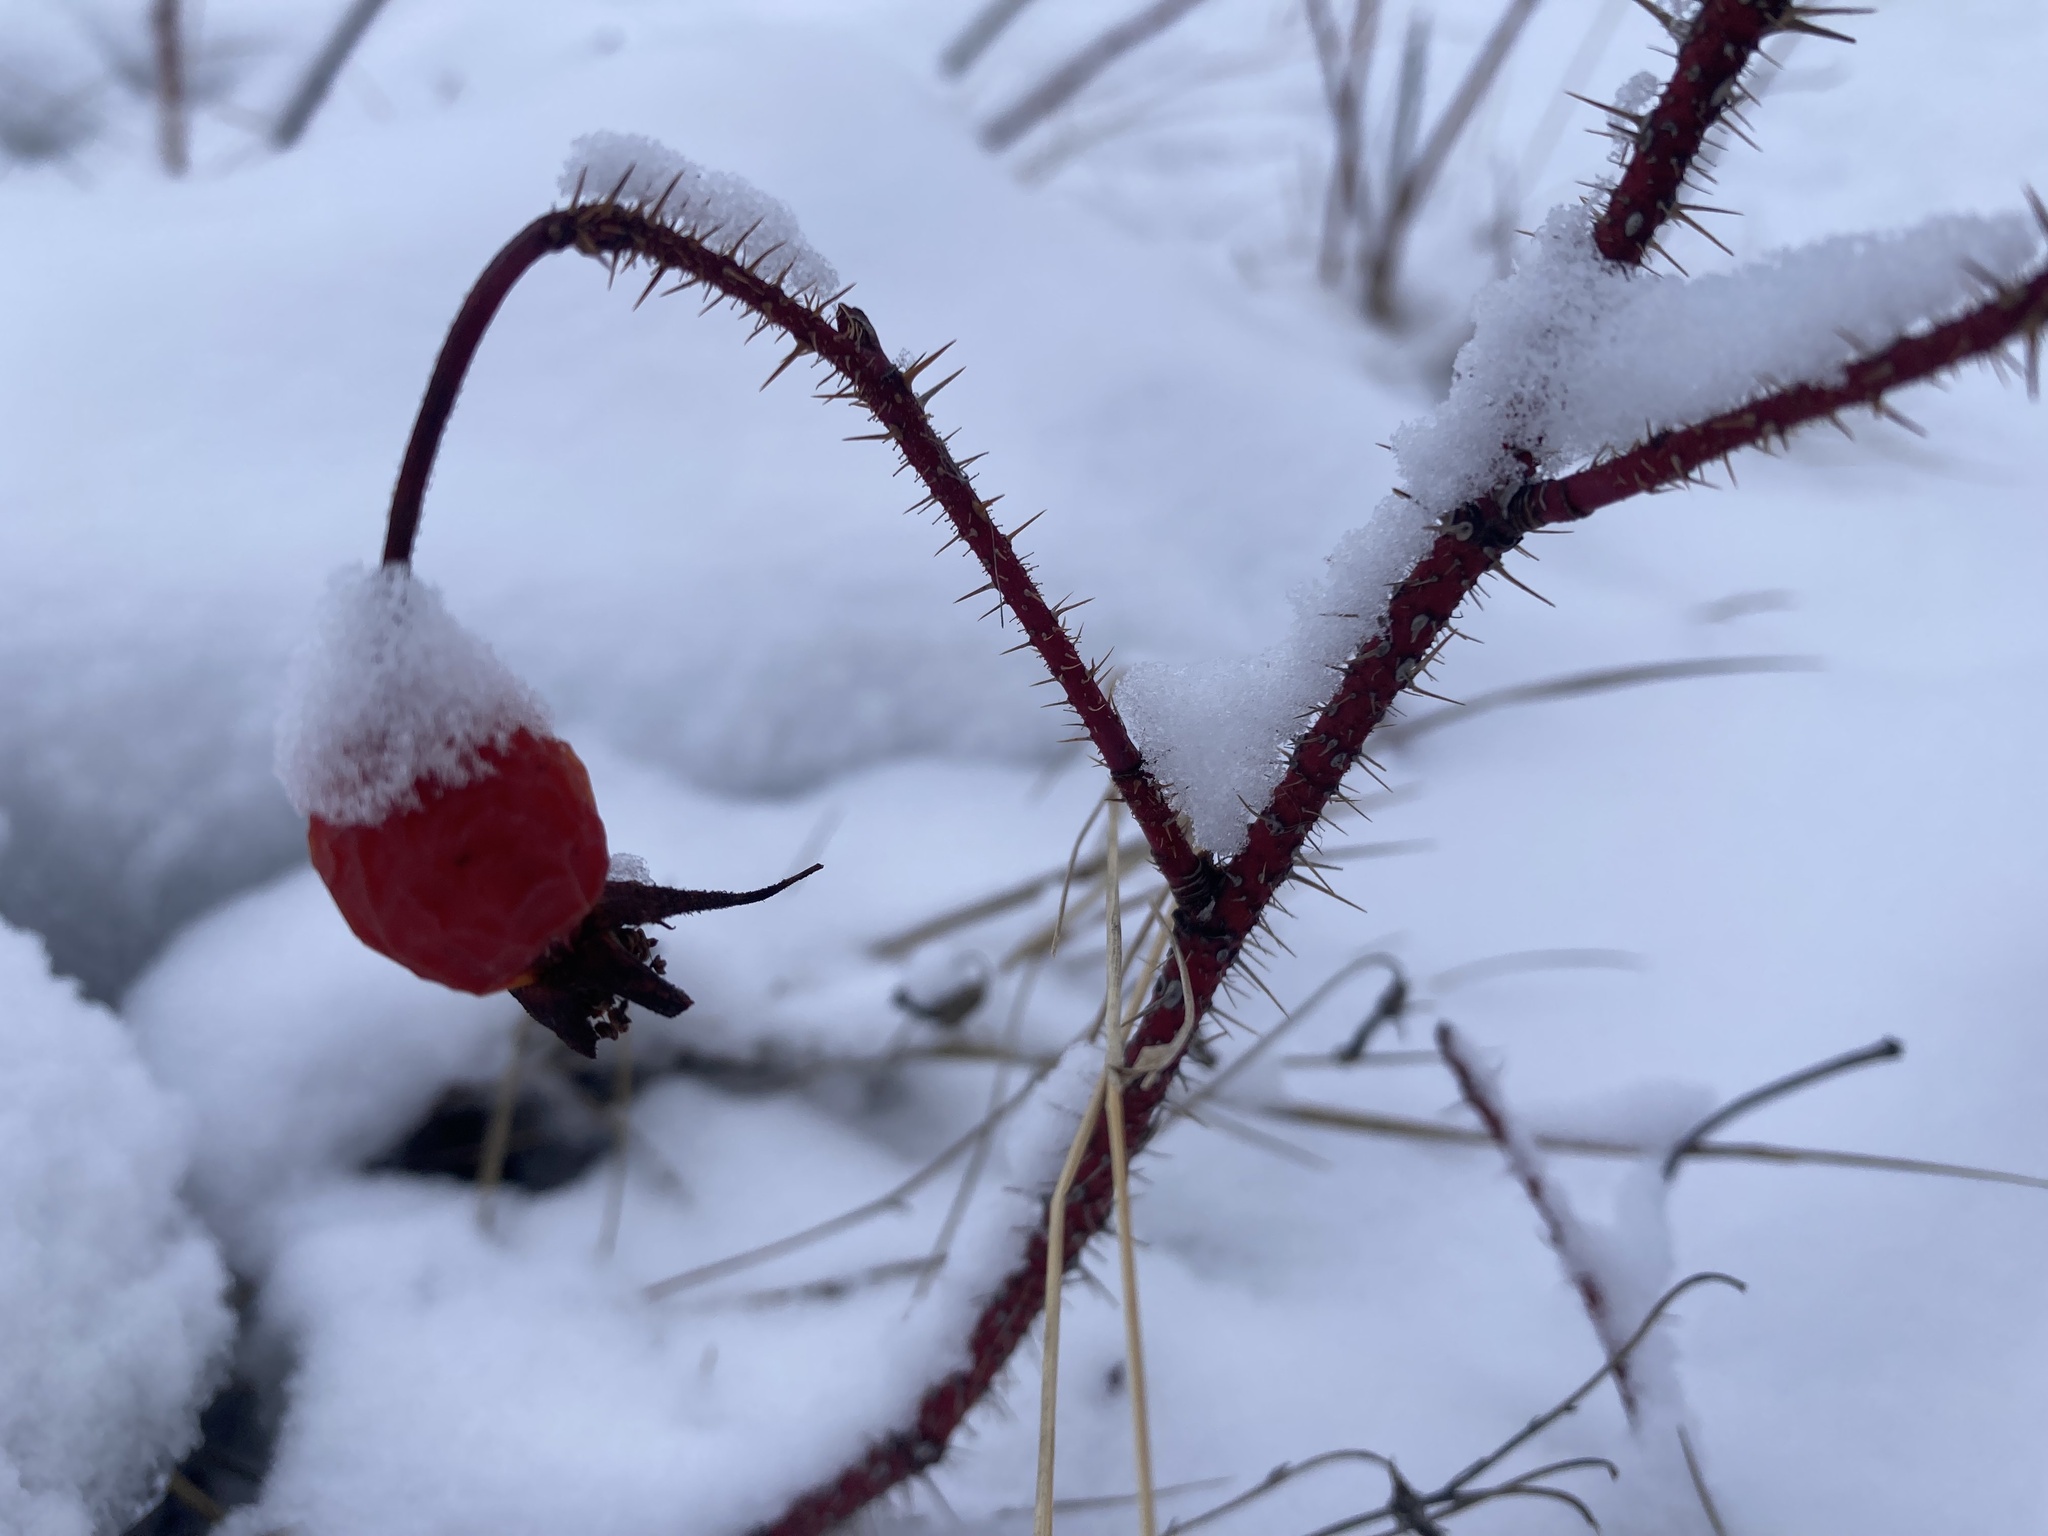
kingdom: Plantae
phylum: Tracheophyta
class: Magnoliopsida
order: Rosales
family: Rosaceae
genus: Rosa
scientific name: Rosa acicularis
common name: Prickly rose
